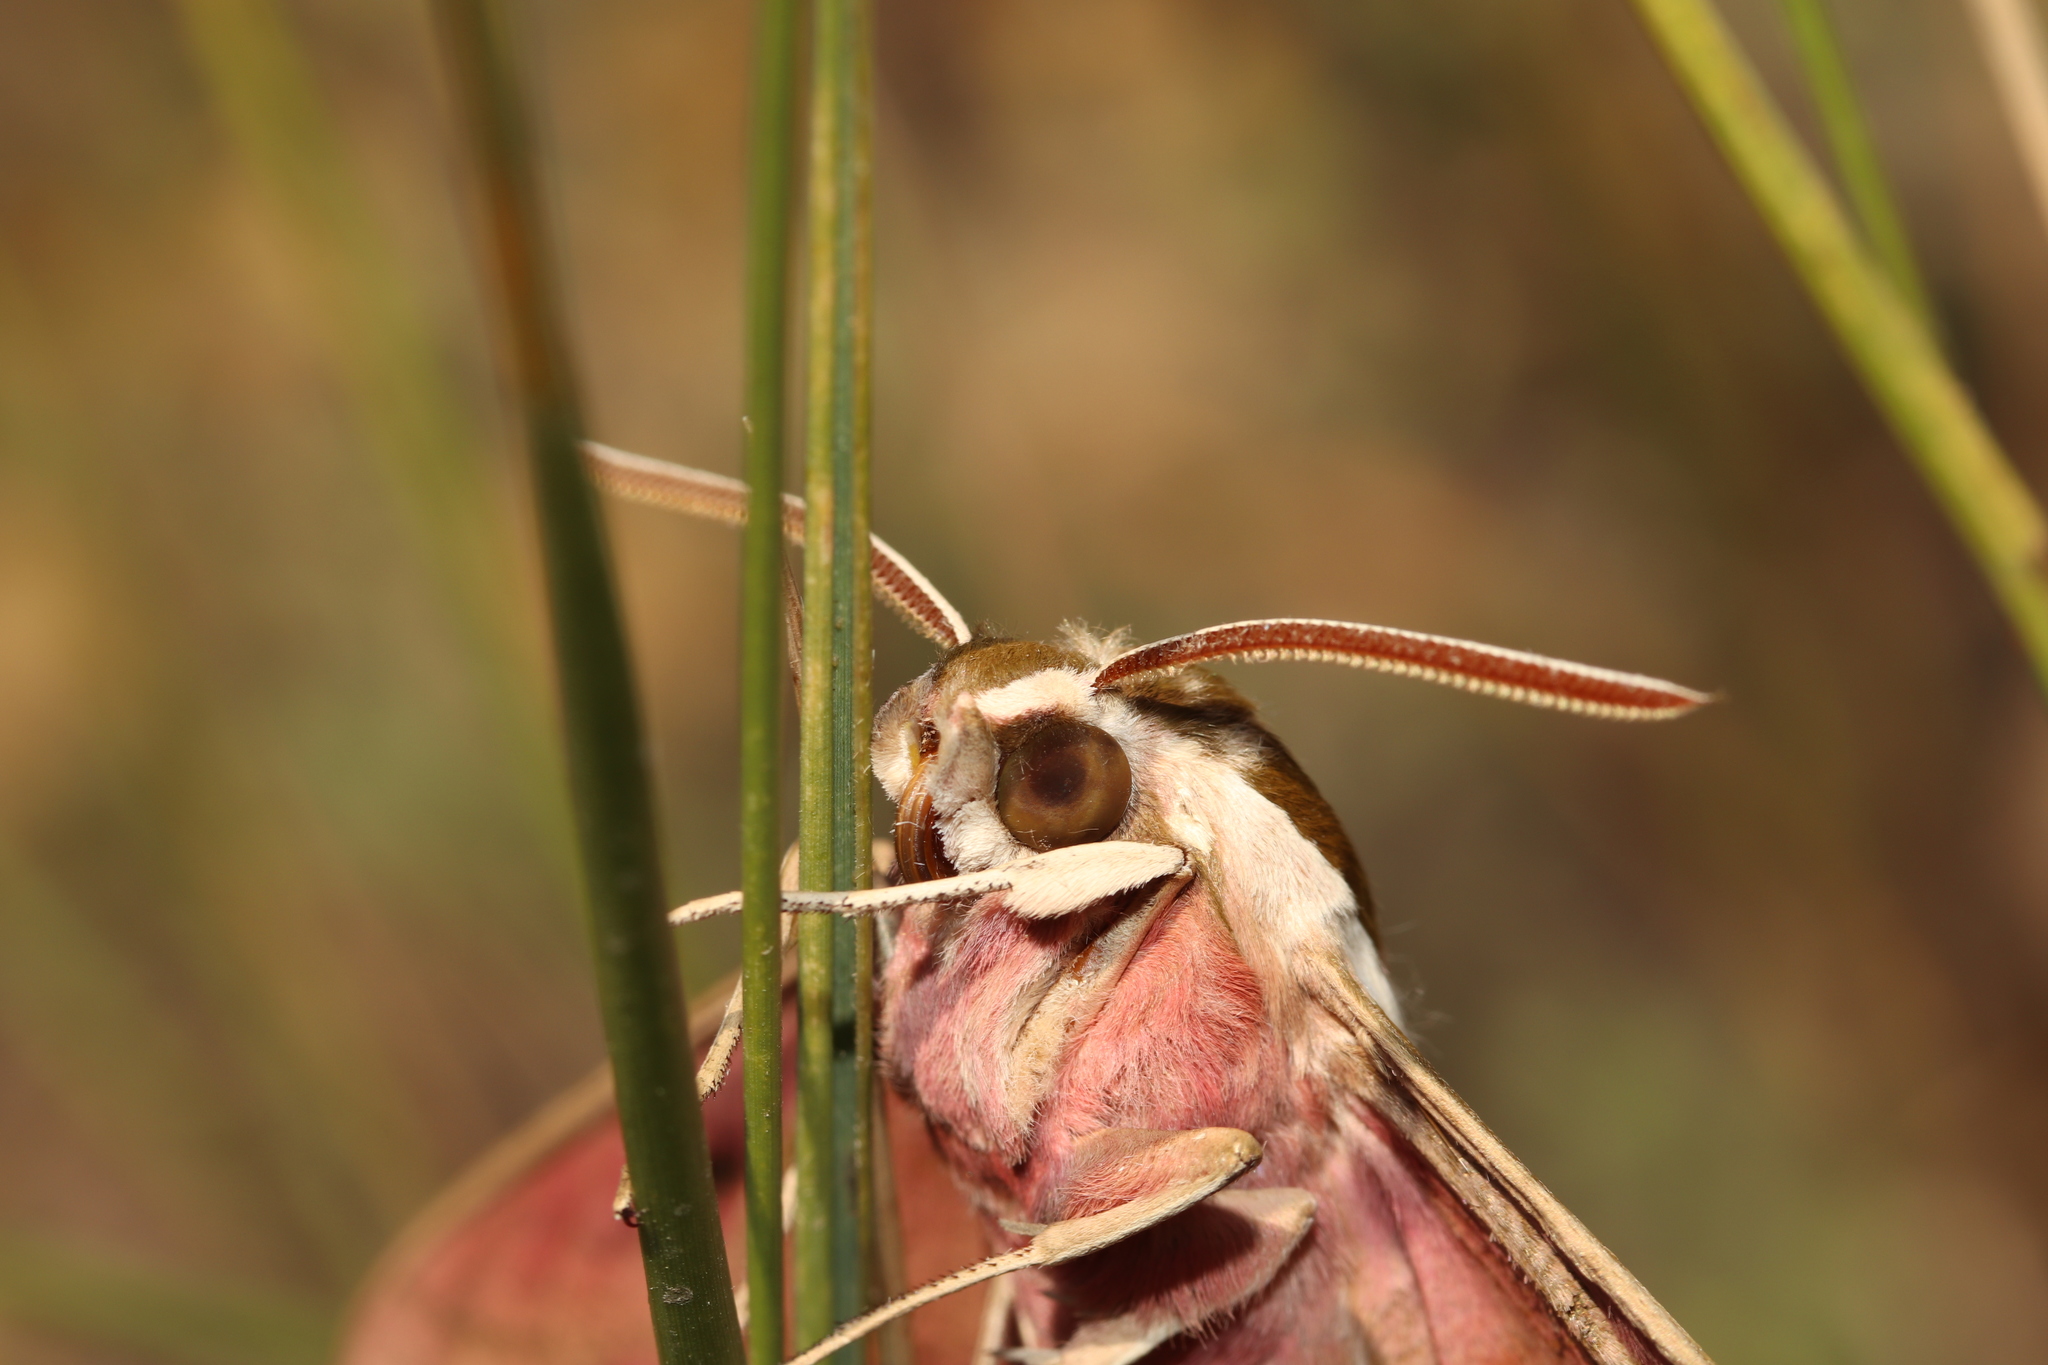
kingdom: Animalia
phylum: Arthropoda
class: Insecta
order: Lepidoptera
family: Sphingidae
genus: Hyles
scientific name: Hyles euphorbiae
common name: Spurge hawk-moth
